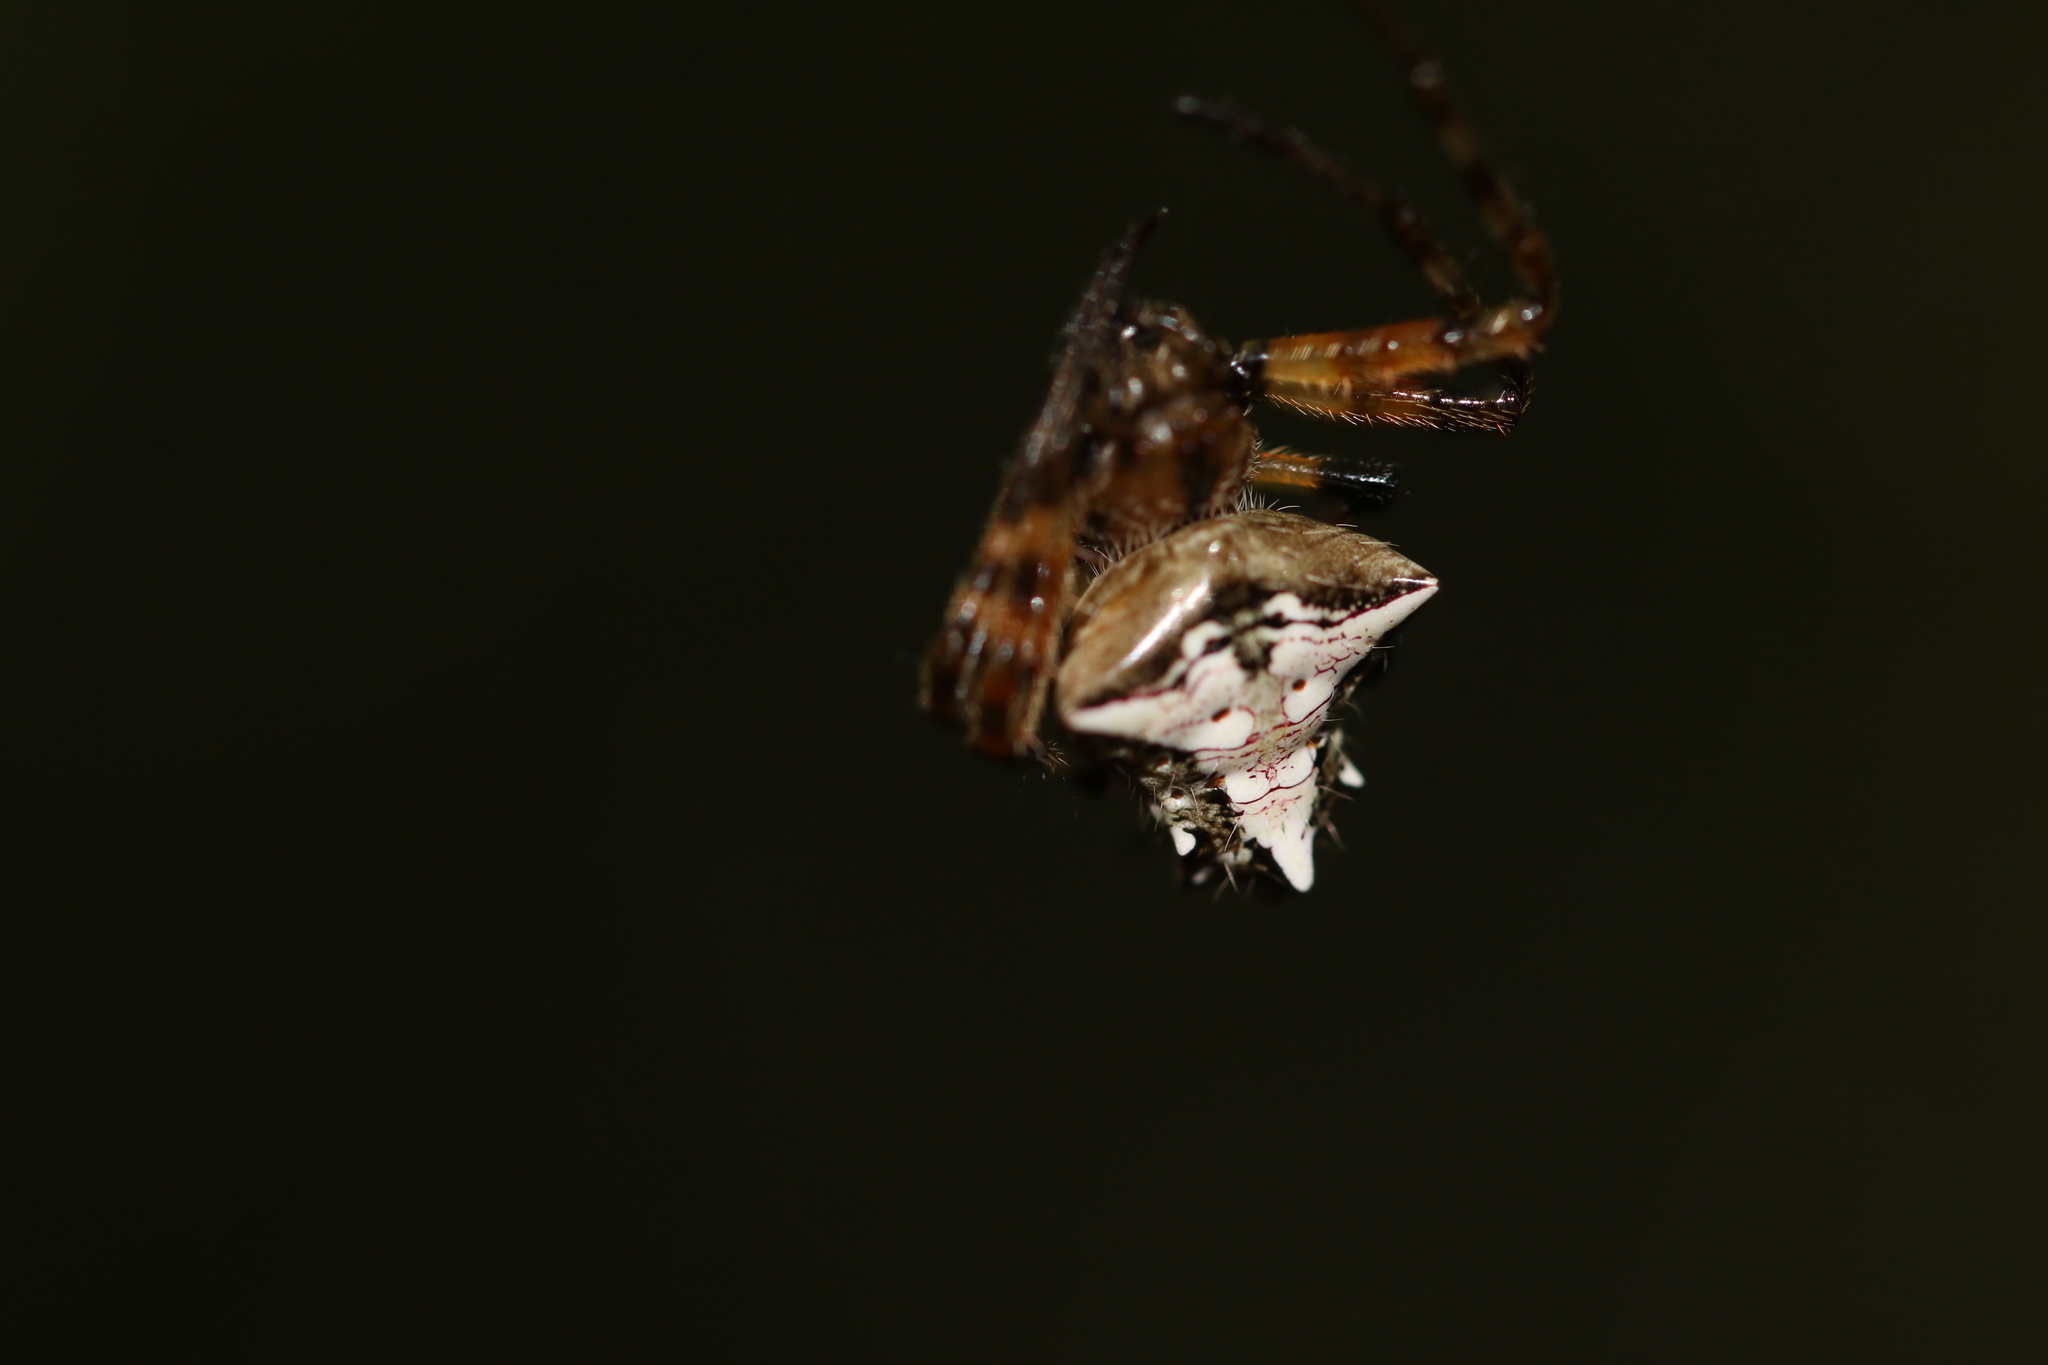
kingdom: Animalia
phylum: Arthropoda
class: Arachnida
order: Araneae
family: Araneidae
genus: Verrucosa
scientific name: Verrucosa scapofracta
